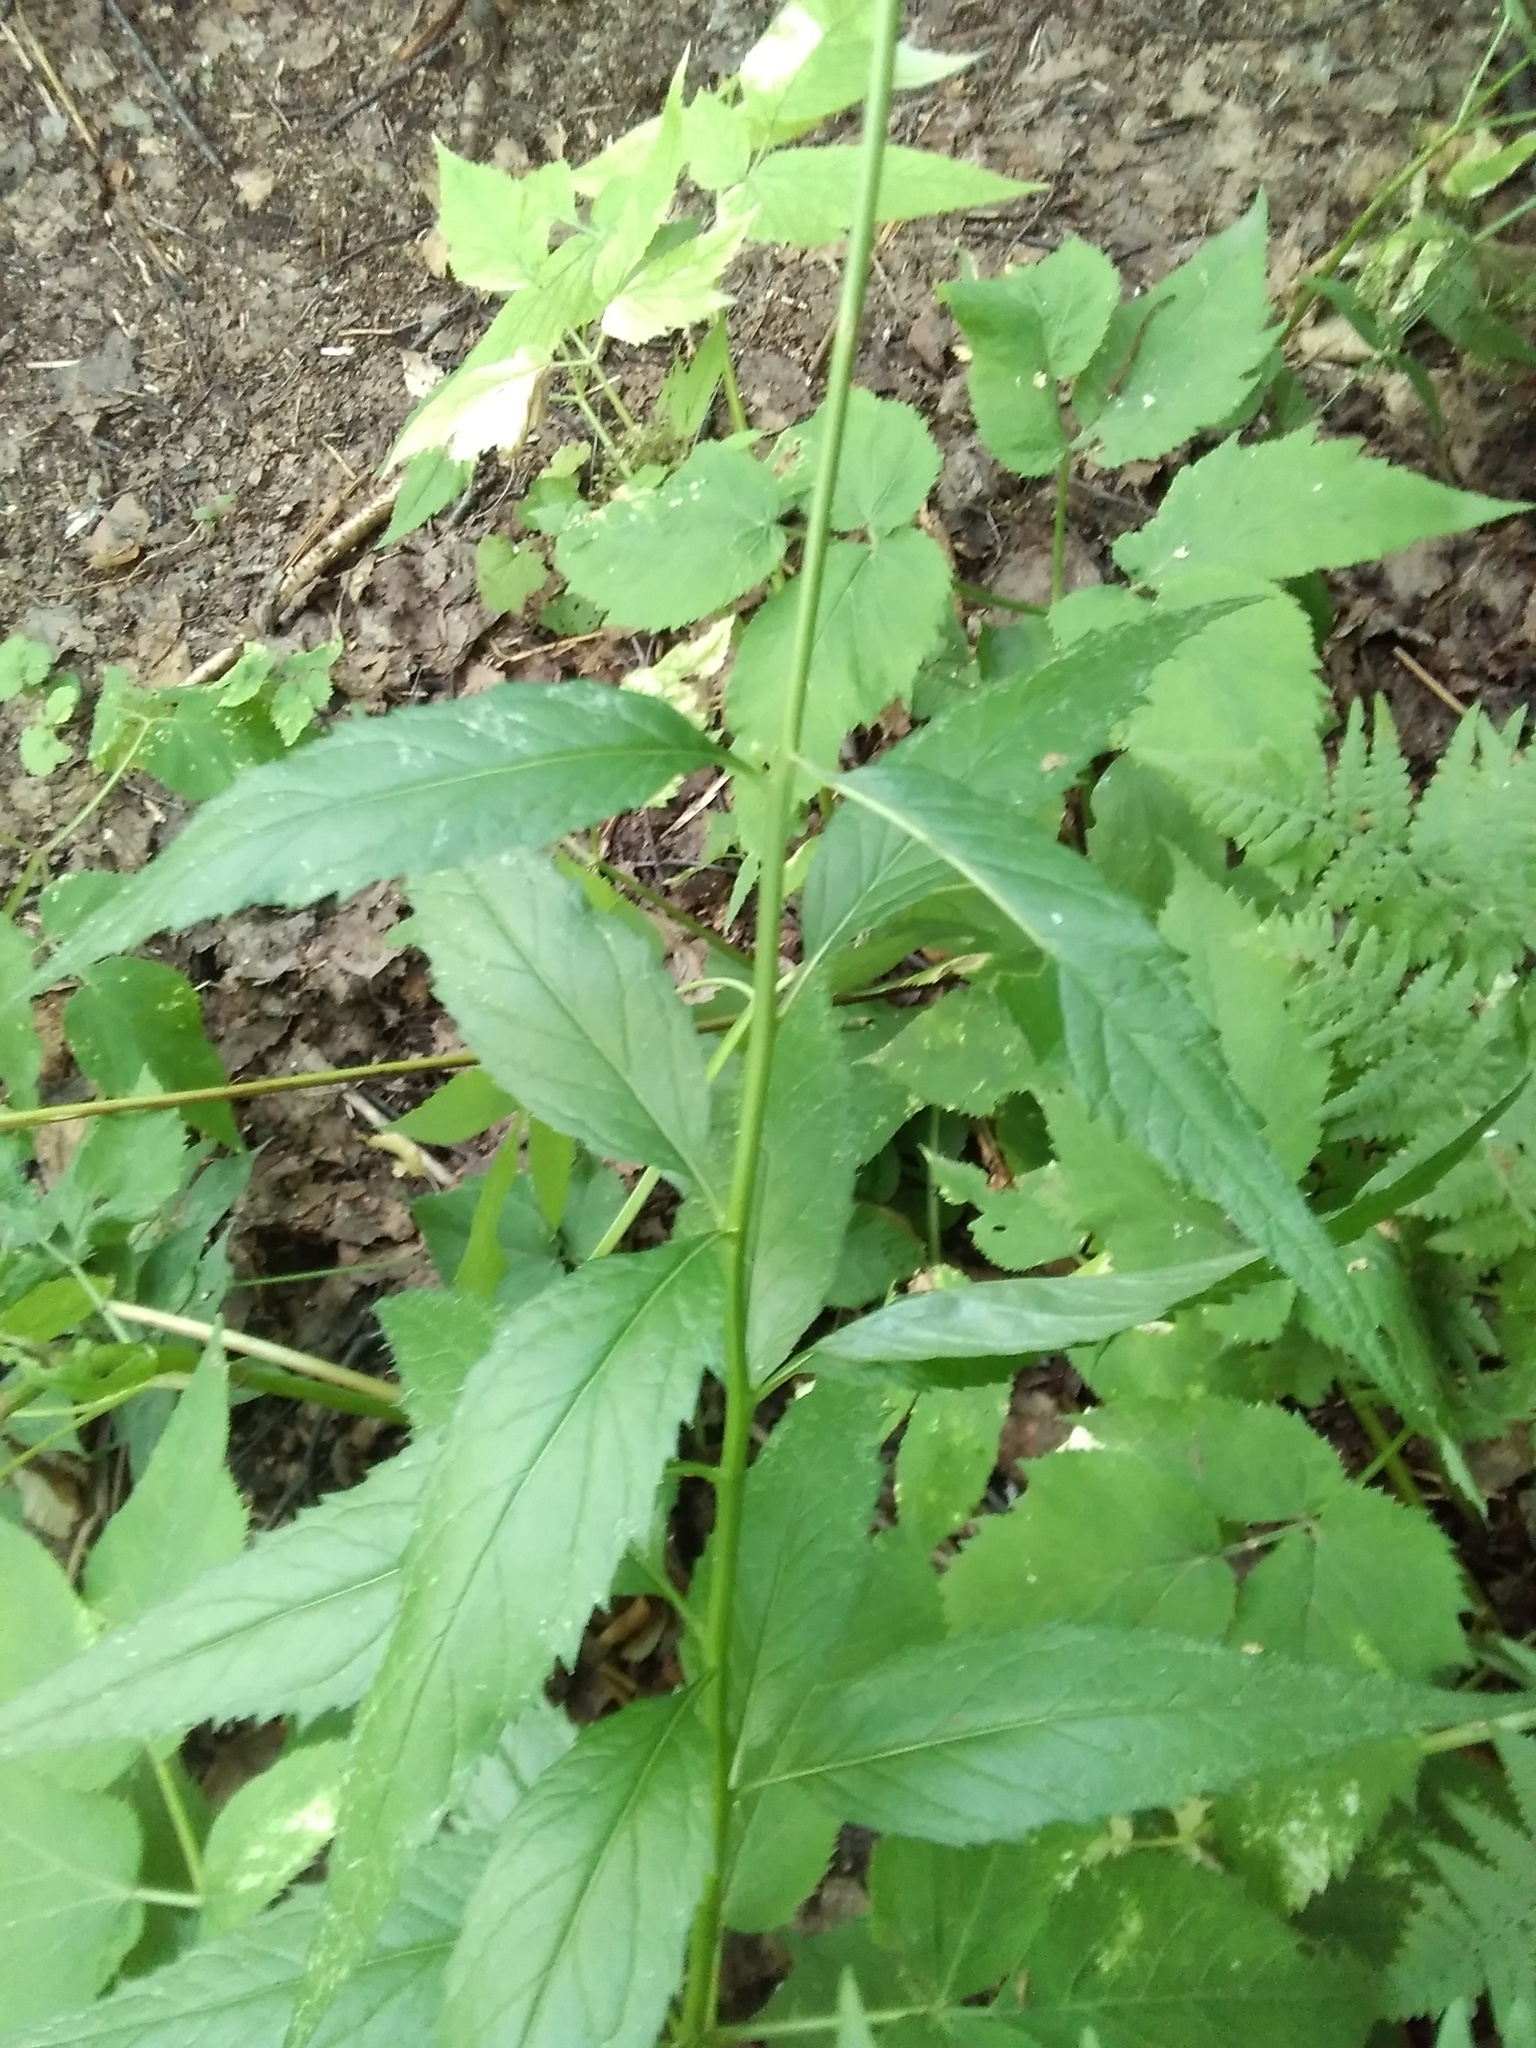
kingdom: Plantae
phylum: Tracheophyta
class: Magnoliopsida
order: Asterales
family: Campanulaceae
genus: Adenophora
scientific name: Adenophora liliifolia
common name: Lilyleaf ladybells
